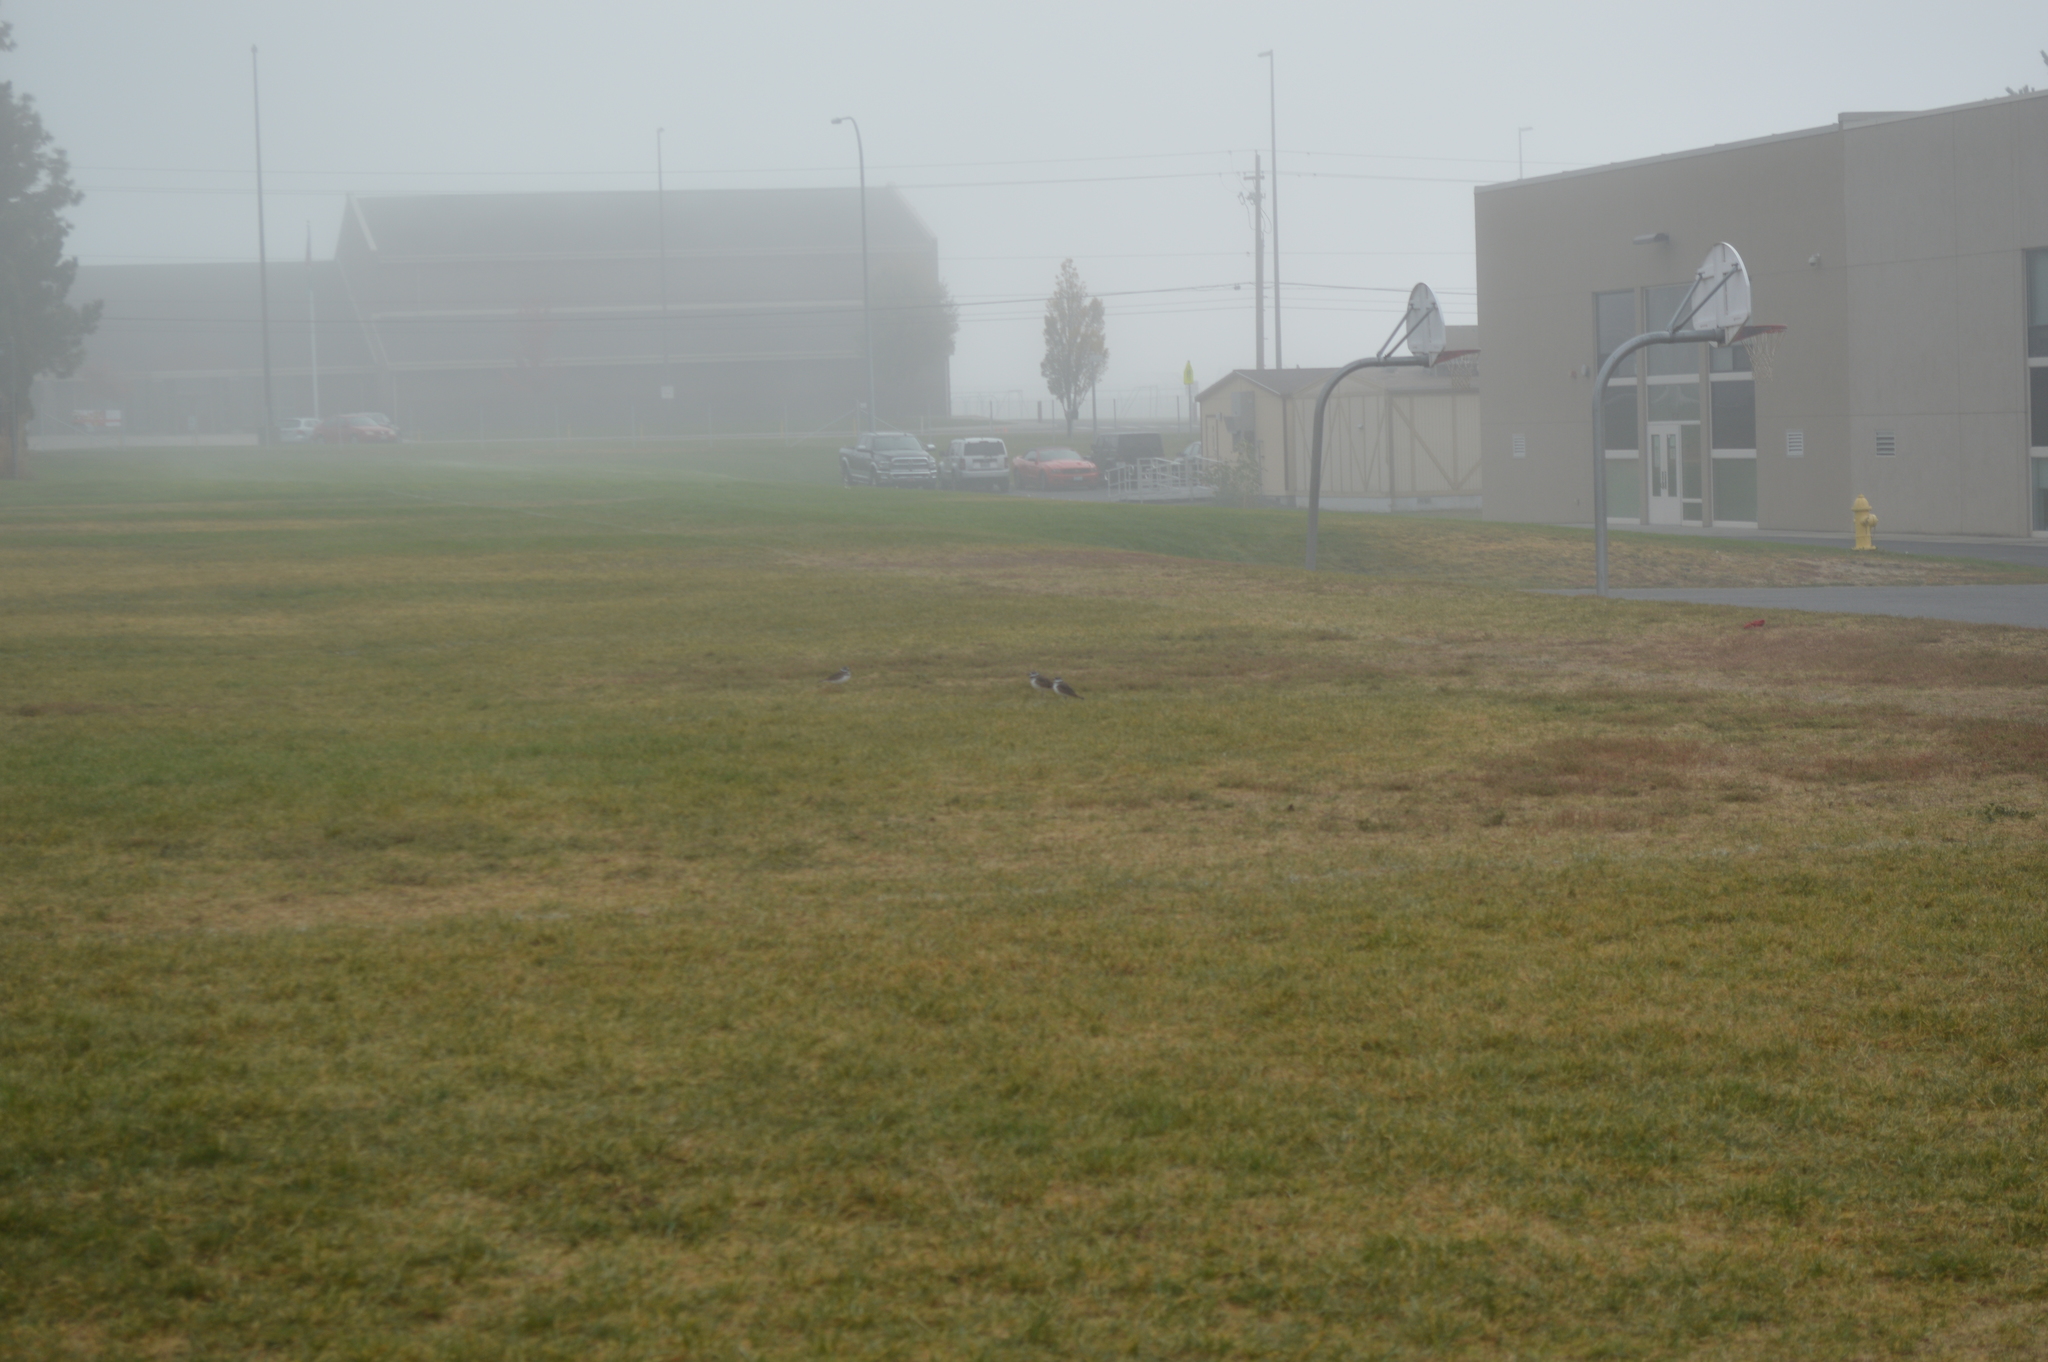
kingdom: Animalia
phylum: Chordata
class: Aves
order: Charadriiformes
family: Charadriidae
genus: Charadrius
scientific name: Charadrius vociferus
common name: Killdeer
